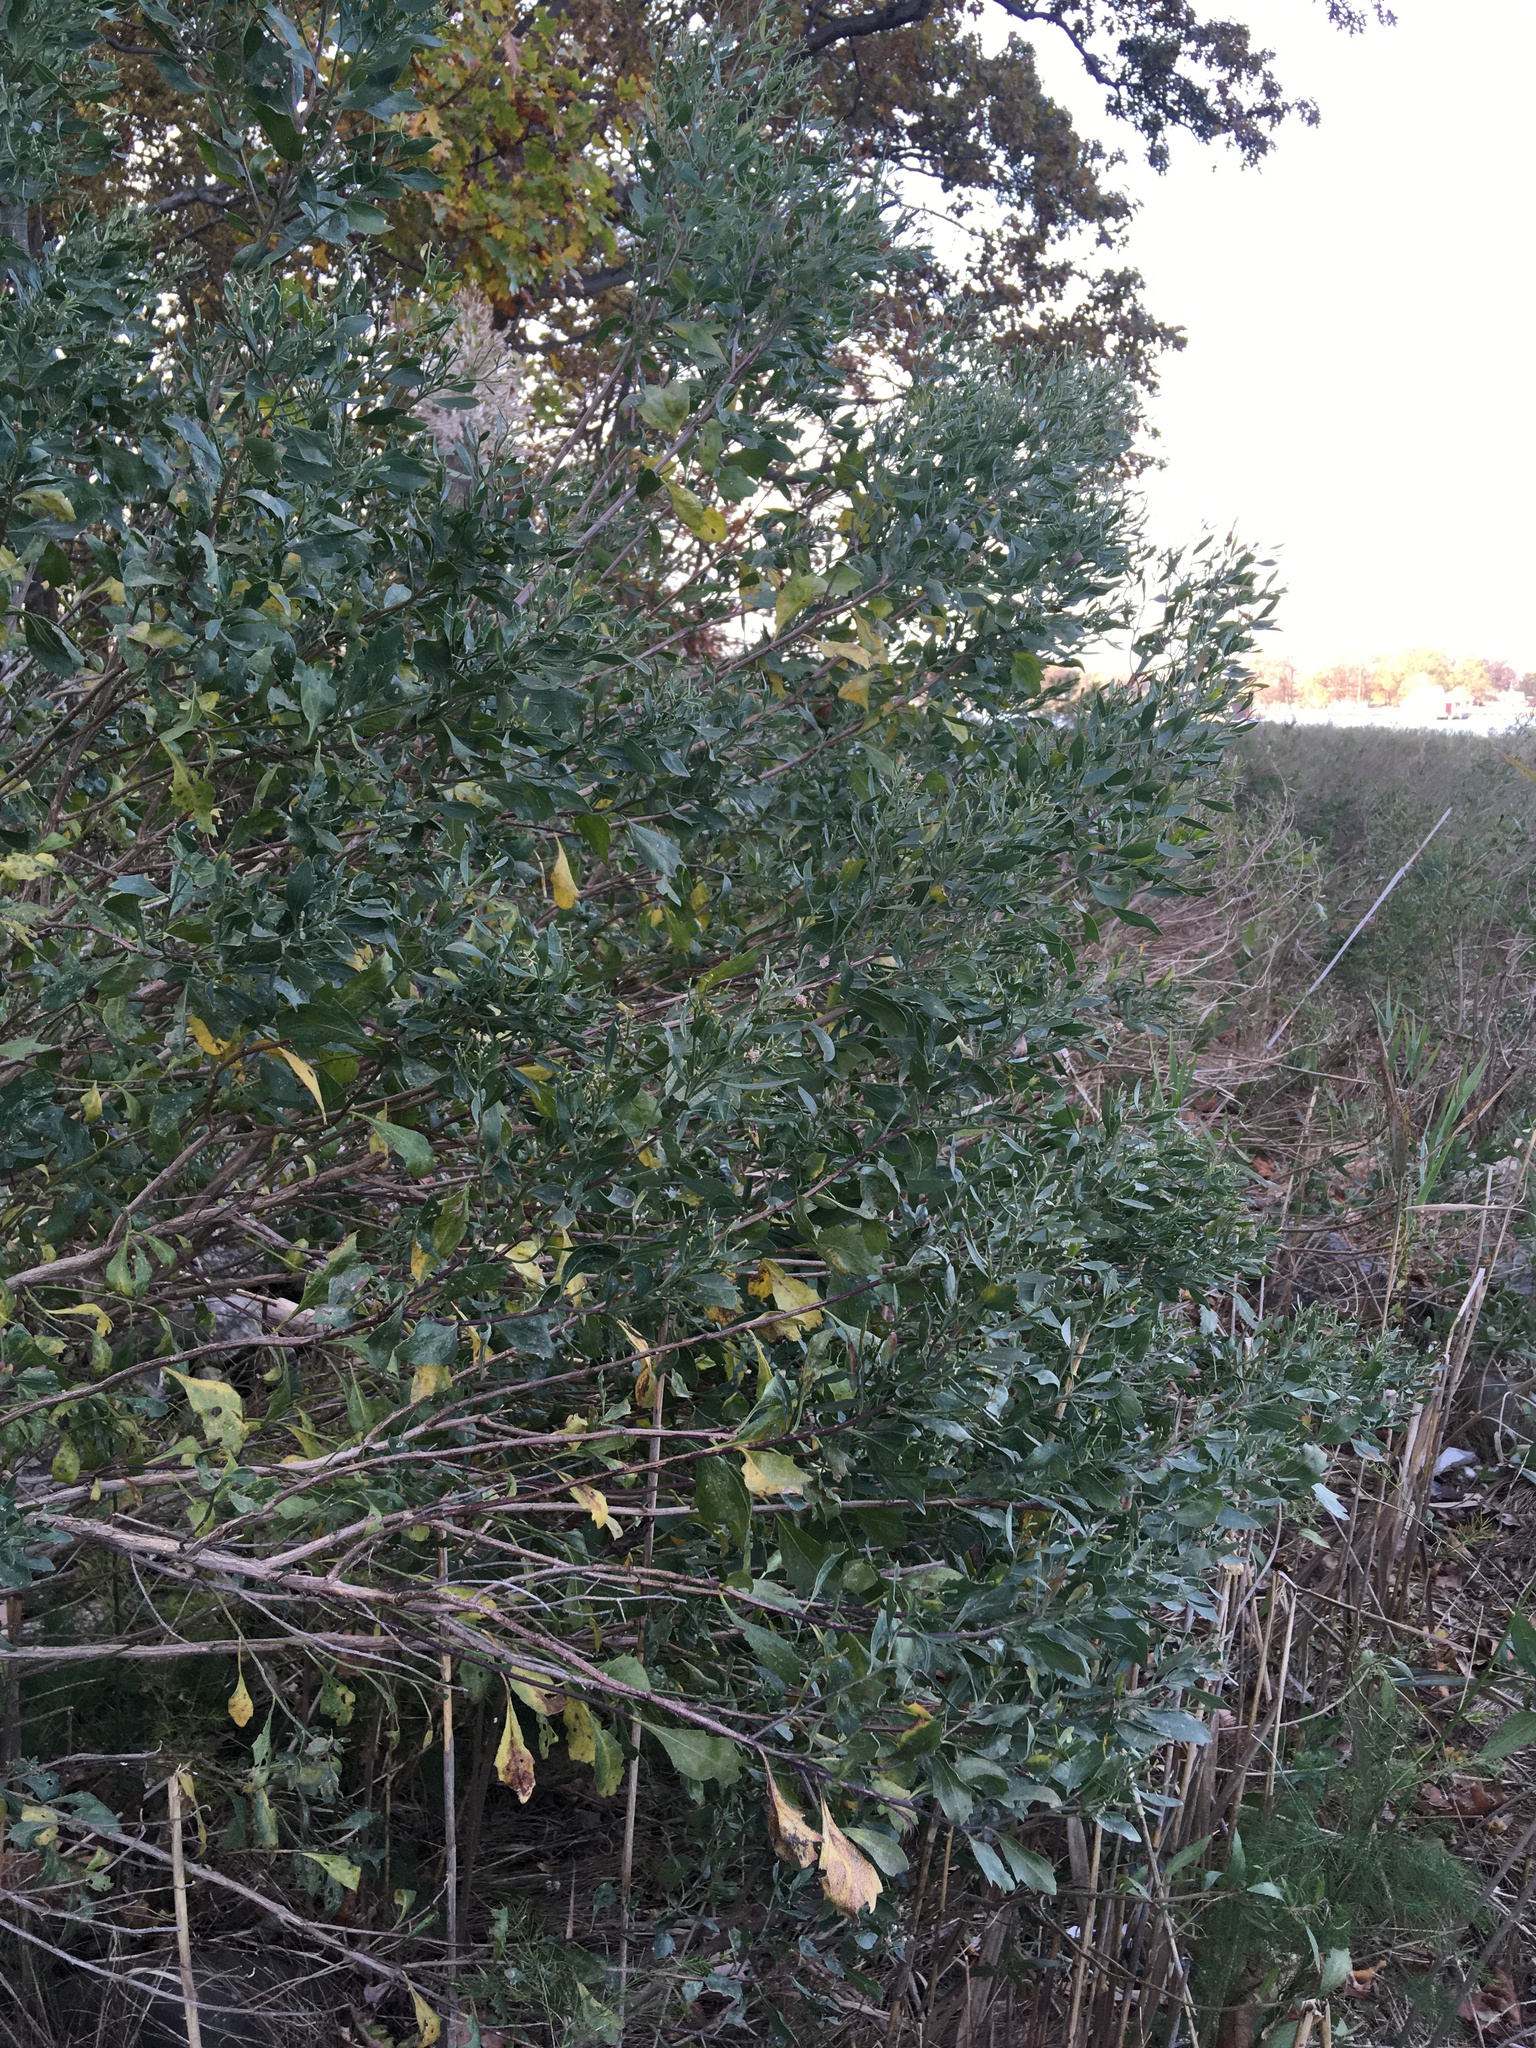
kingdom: Plantae
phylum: Tracheophyta
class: Magnoliopsida
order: Asterales
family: Asteraceae
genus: Baccharis
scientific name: Baccharis halimifolia
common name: Eastern baccharis
